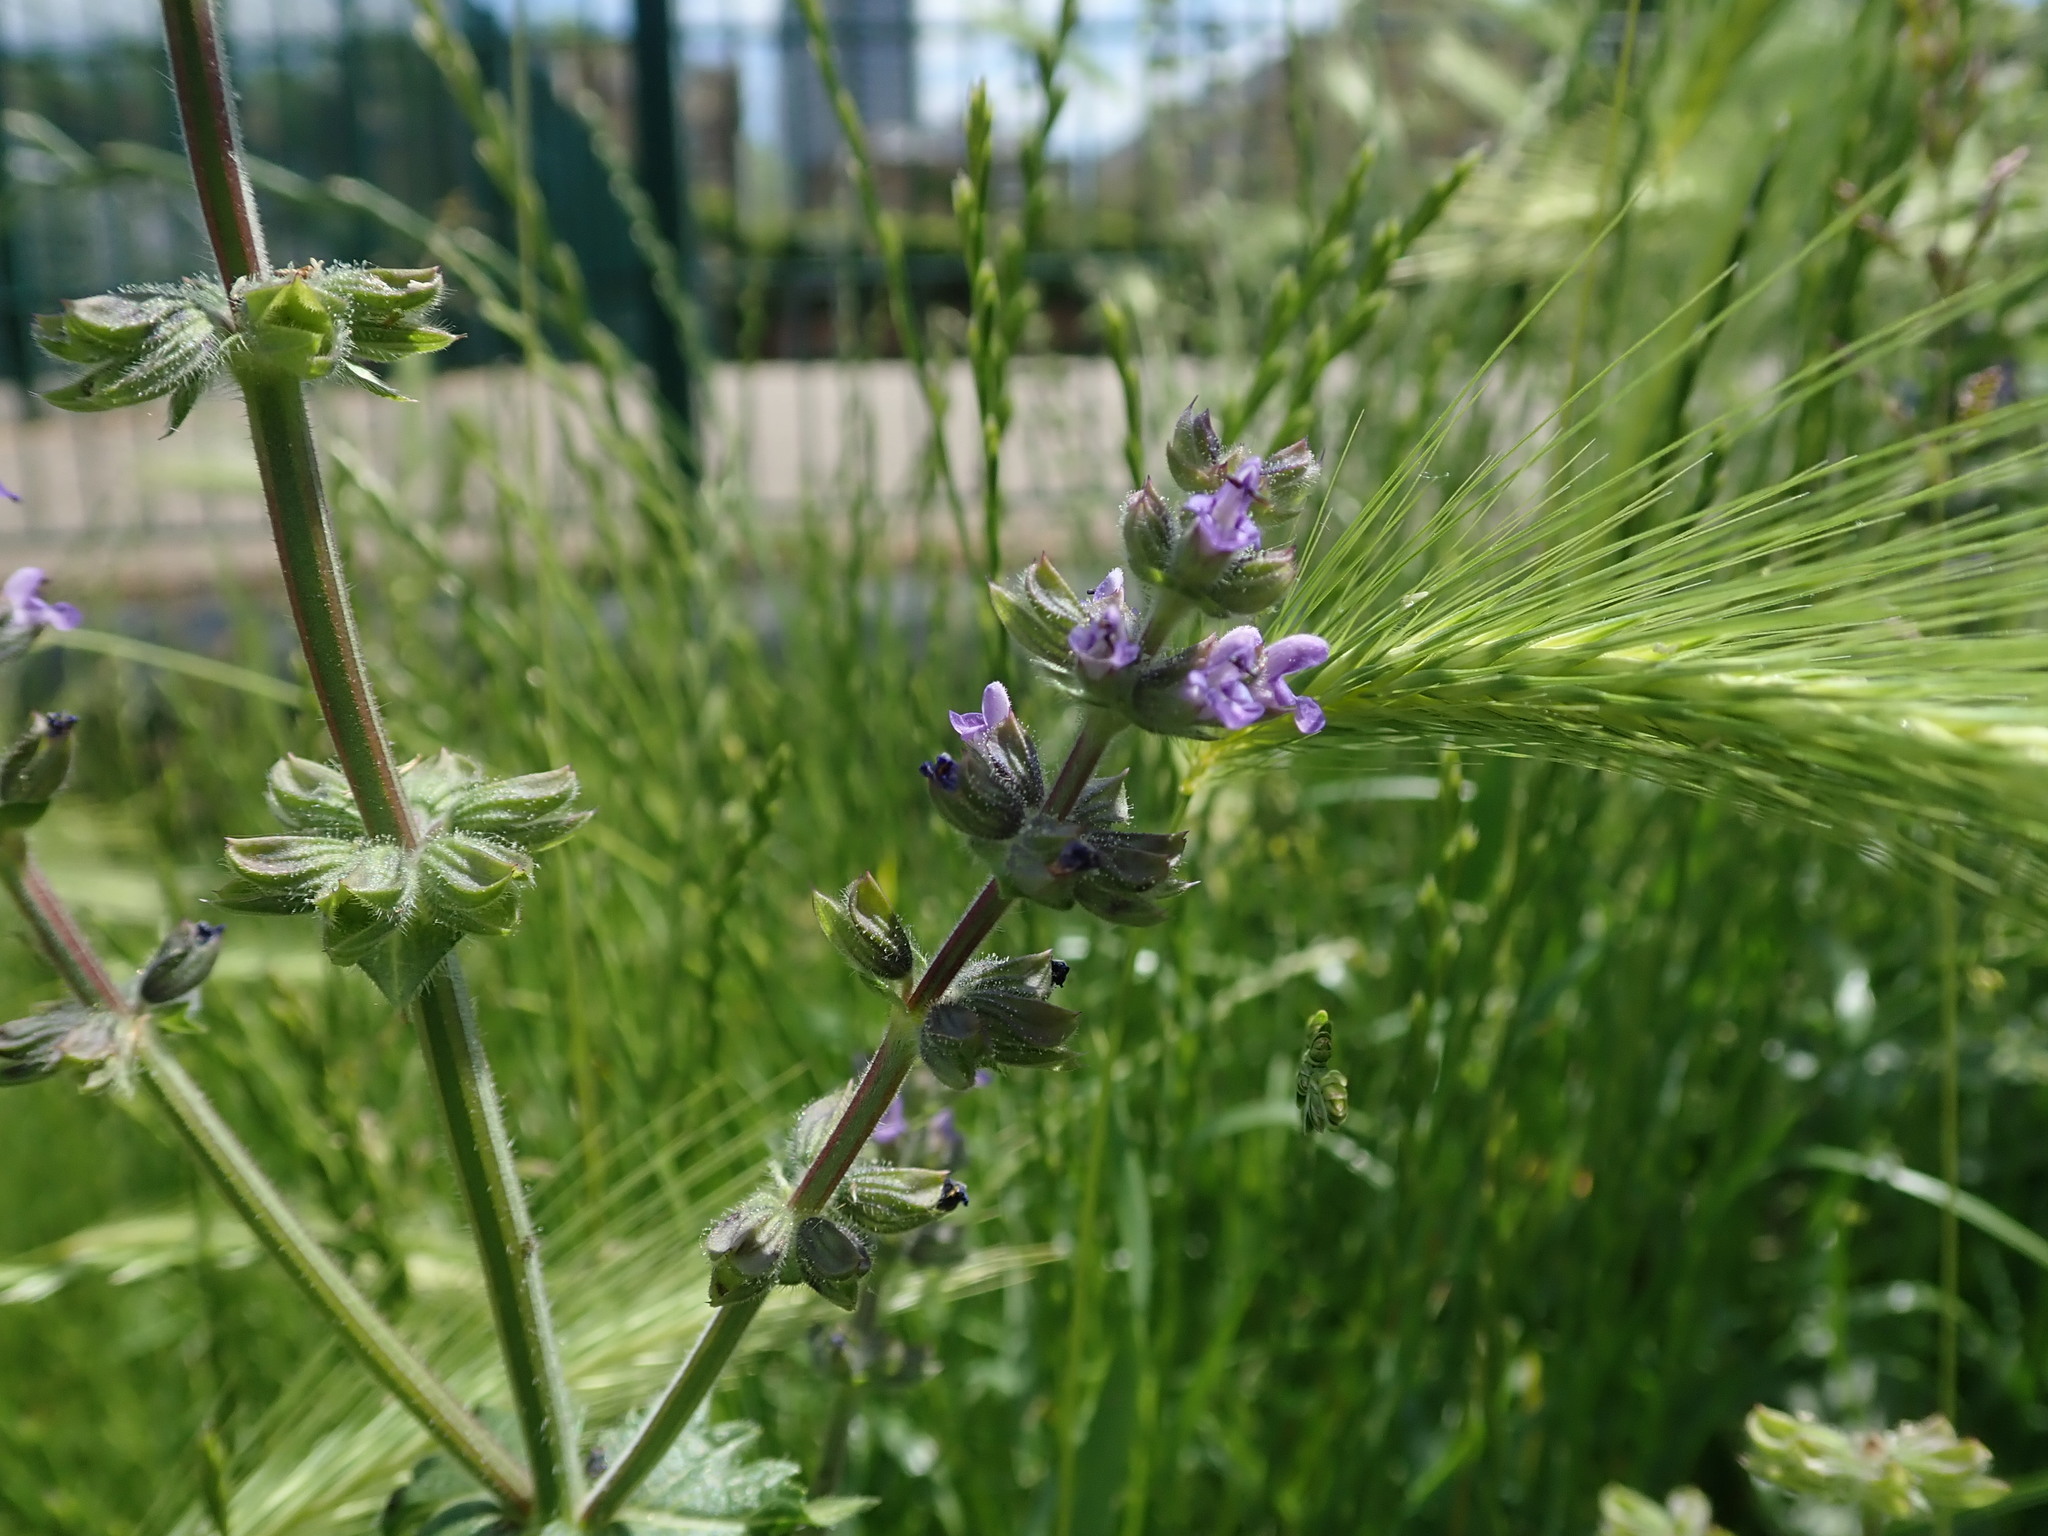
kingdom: Plantae
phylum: Tracheophyta
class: Magnoliopsida
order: Lamiales
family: Lamiaceae
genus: Salvia
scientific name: Salvia verbenaca
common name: Wild clary
